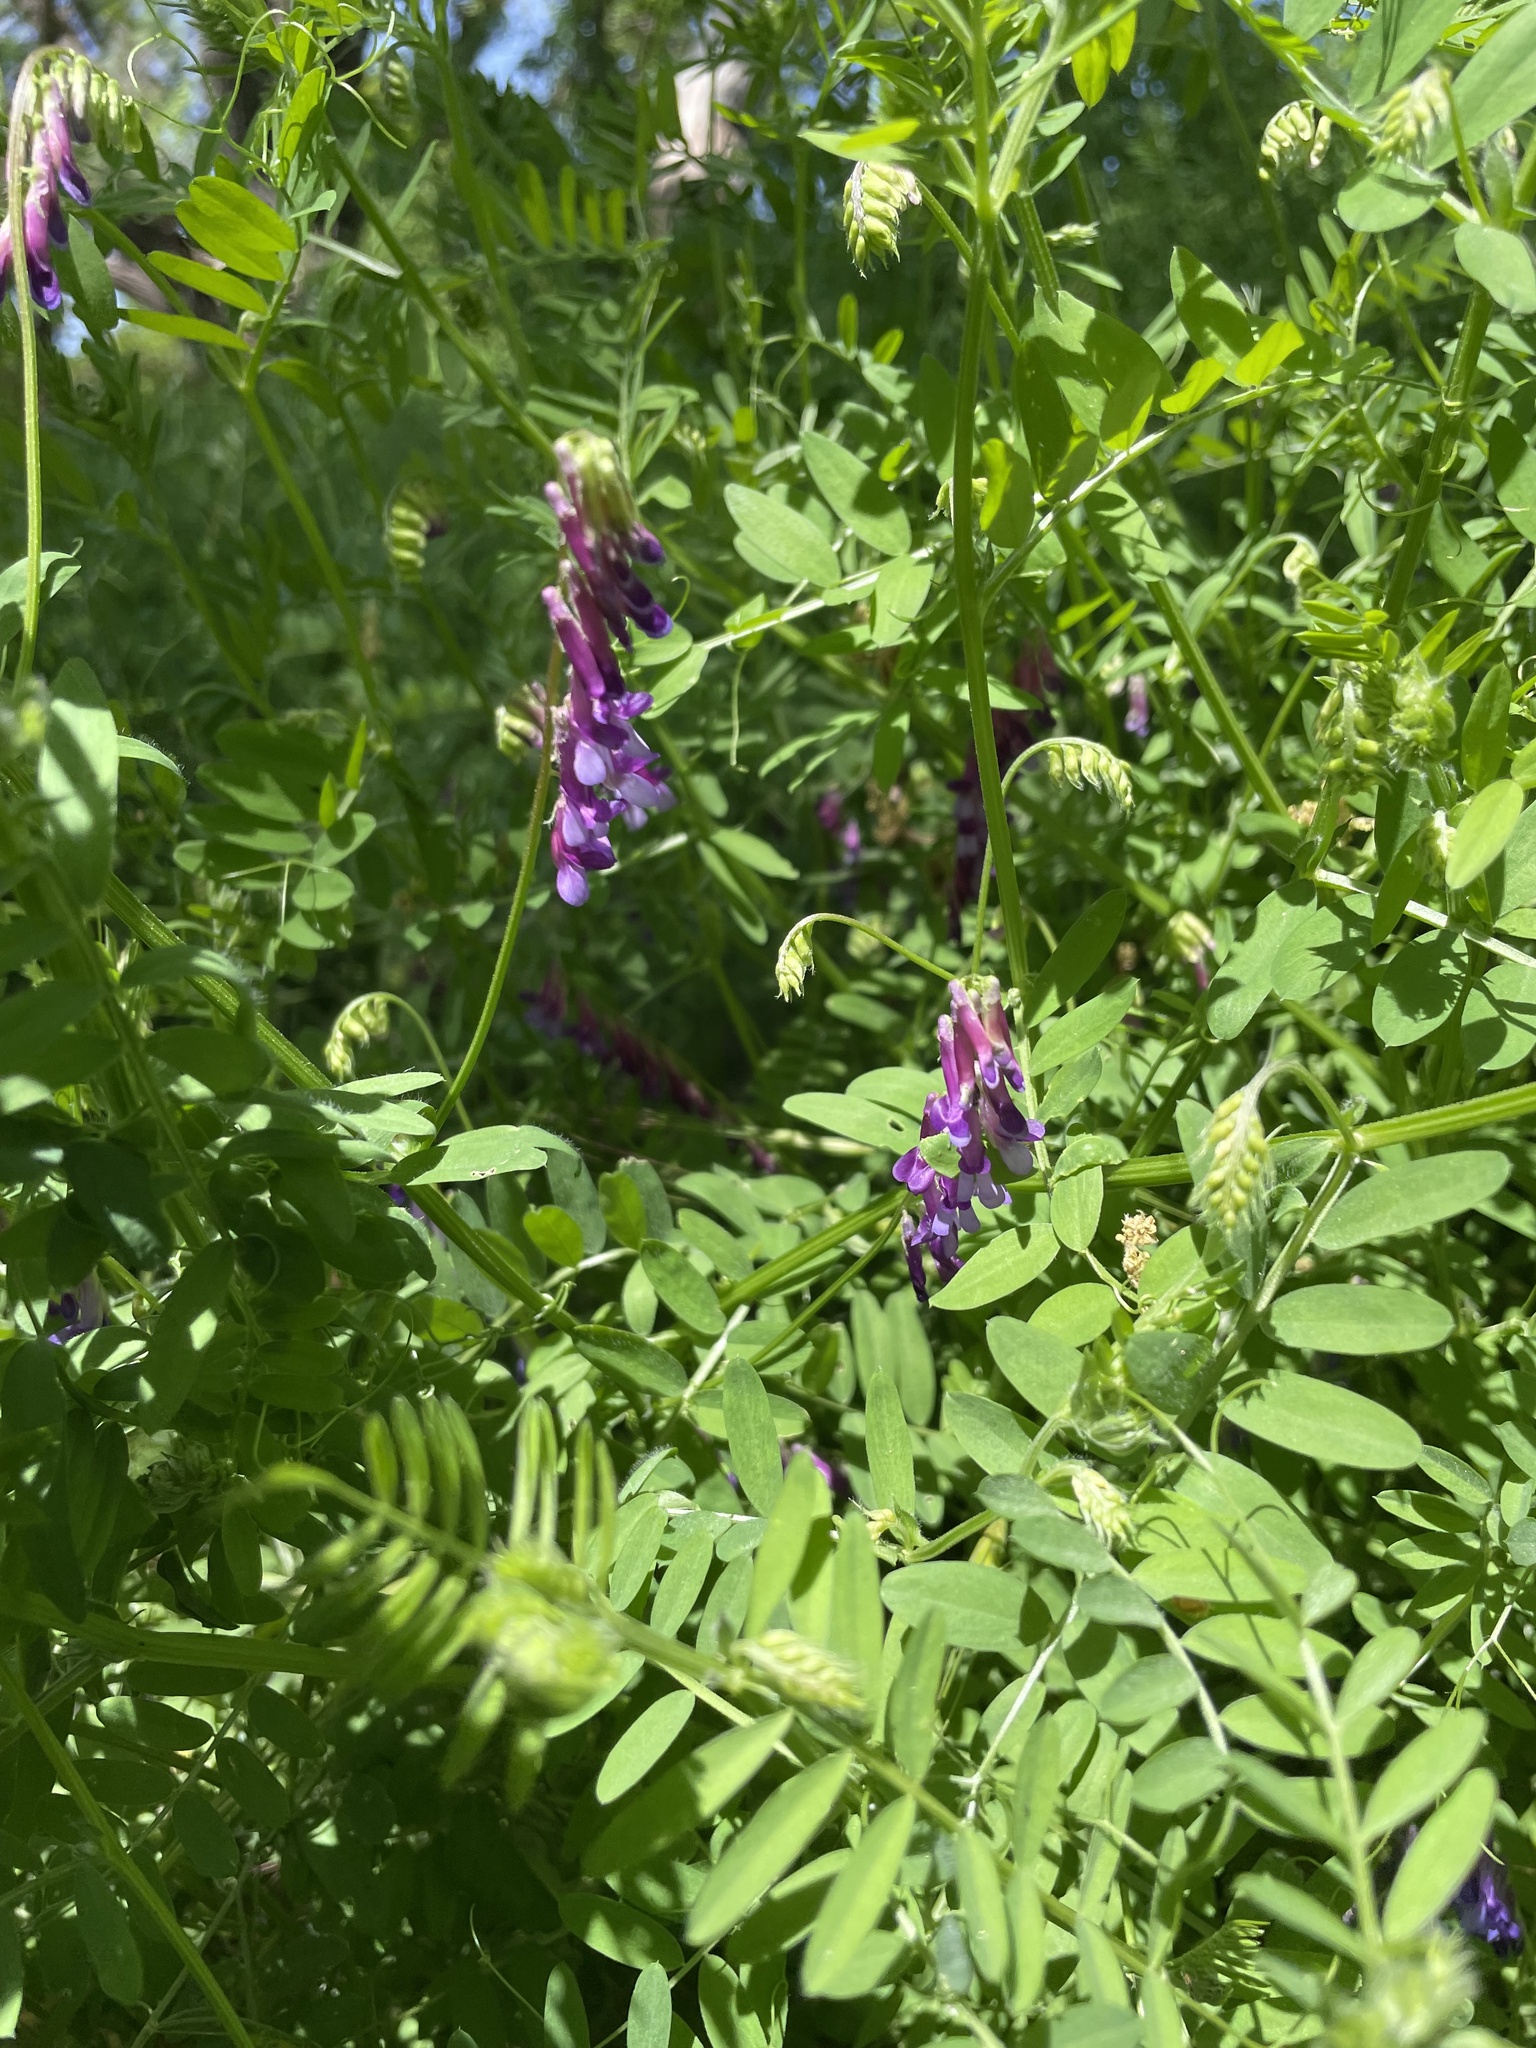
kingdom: Plantae
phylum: Tracheophyta
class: Magnoliopsida
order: Fabales
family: Fabaceae
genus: Vicia
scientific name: Vicia villosa
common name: Fodder vetch
